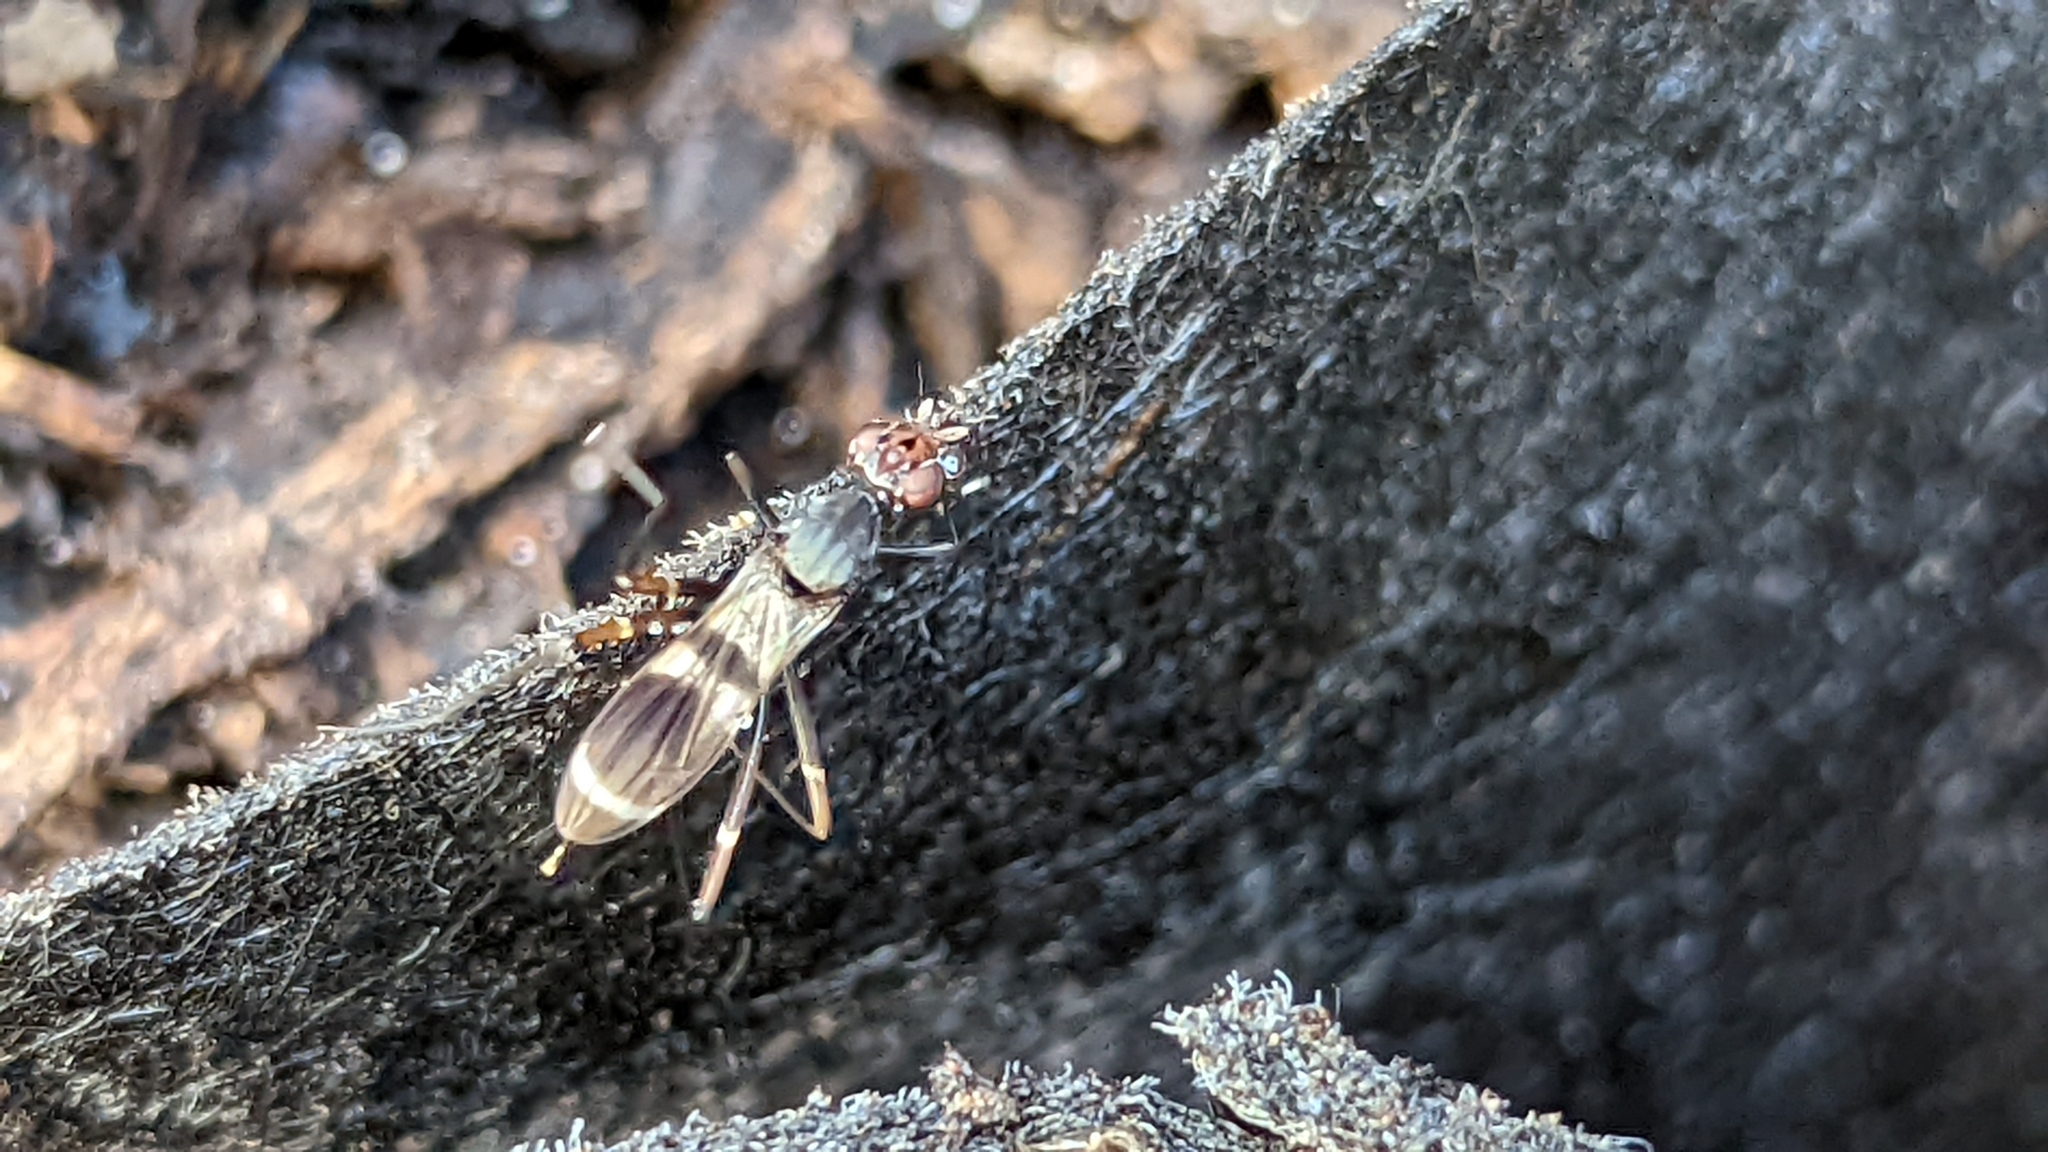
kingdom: Animalia
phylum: Arthropoda
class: Insecta
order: Diptera
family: Micropezidae
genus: Taeniaptera
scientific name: Taeniaptera lasciva
